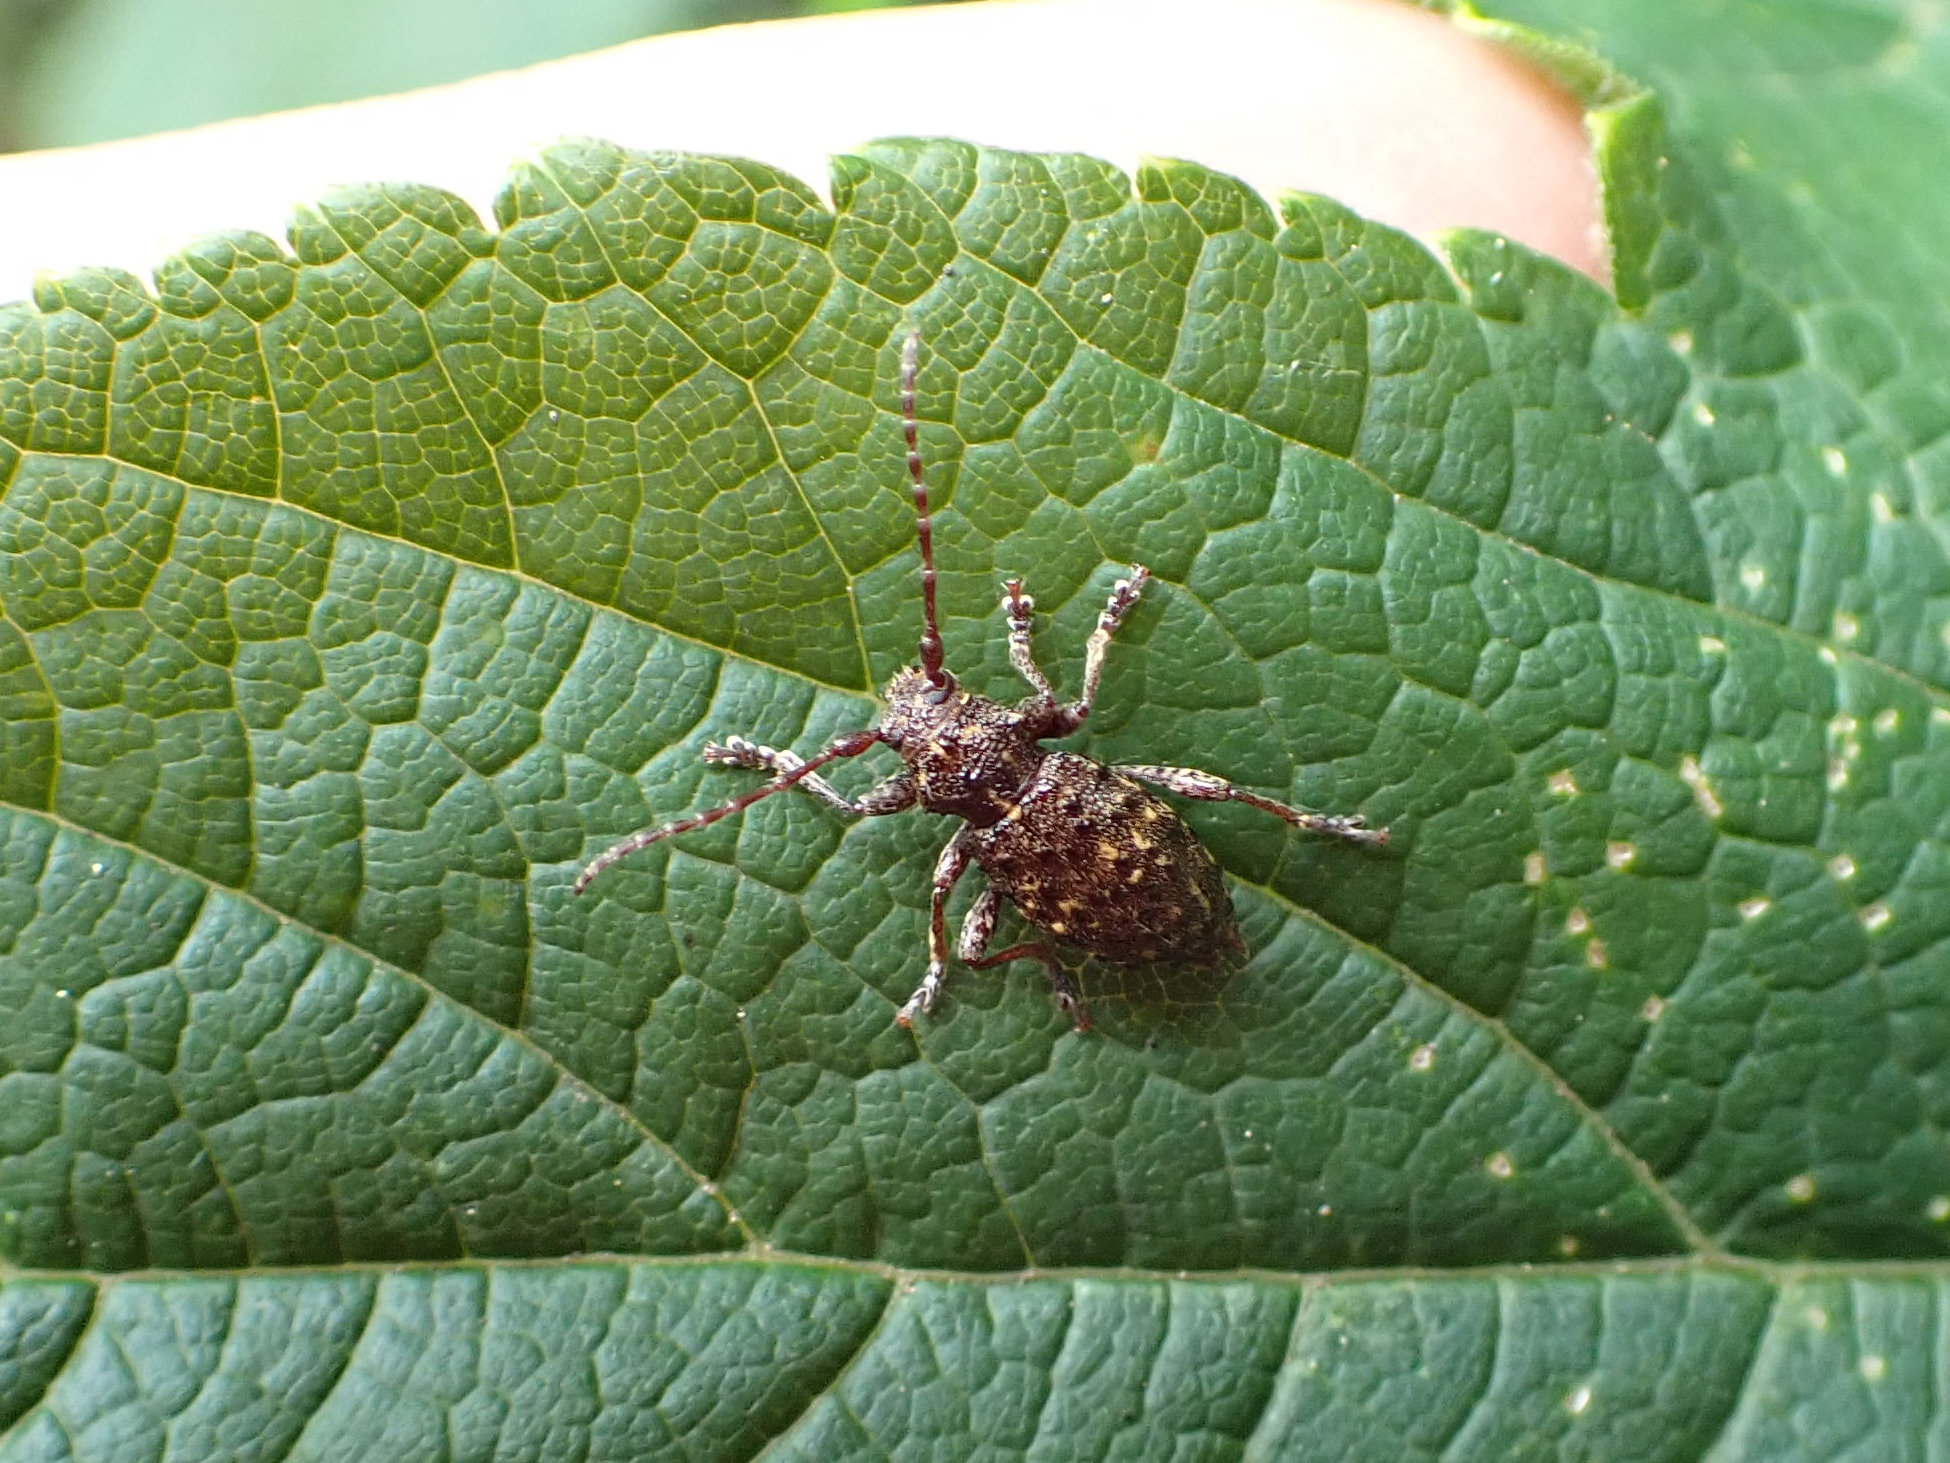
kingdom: Animalia
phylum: Arthropoda
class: Insecta
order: Coleoptera
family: Cerambycidae
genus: Plectrura
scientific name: Plectrura spinicauda
